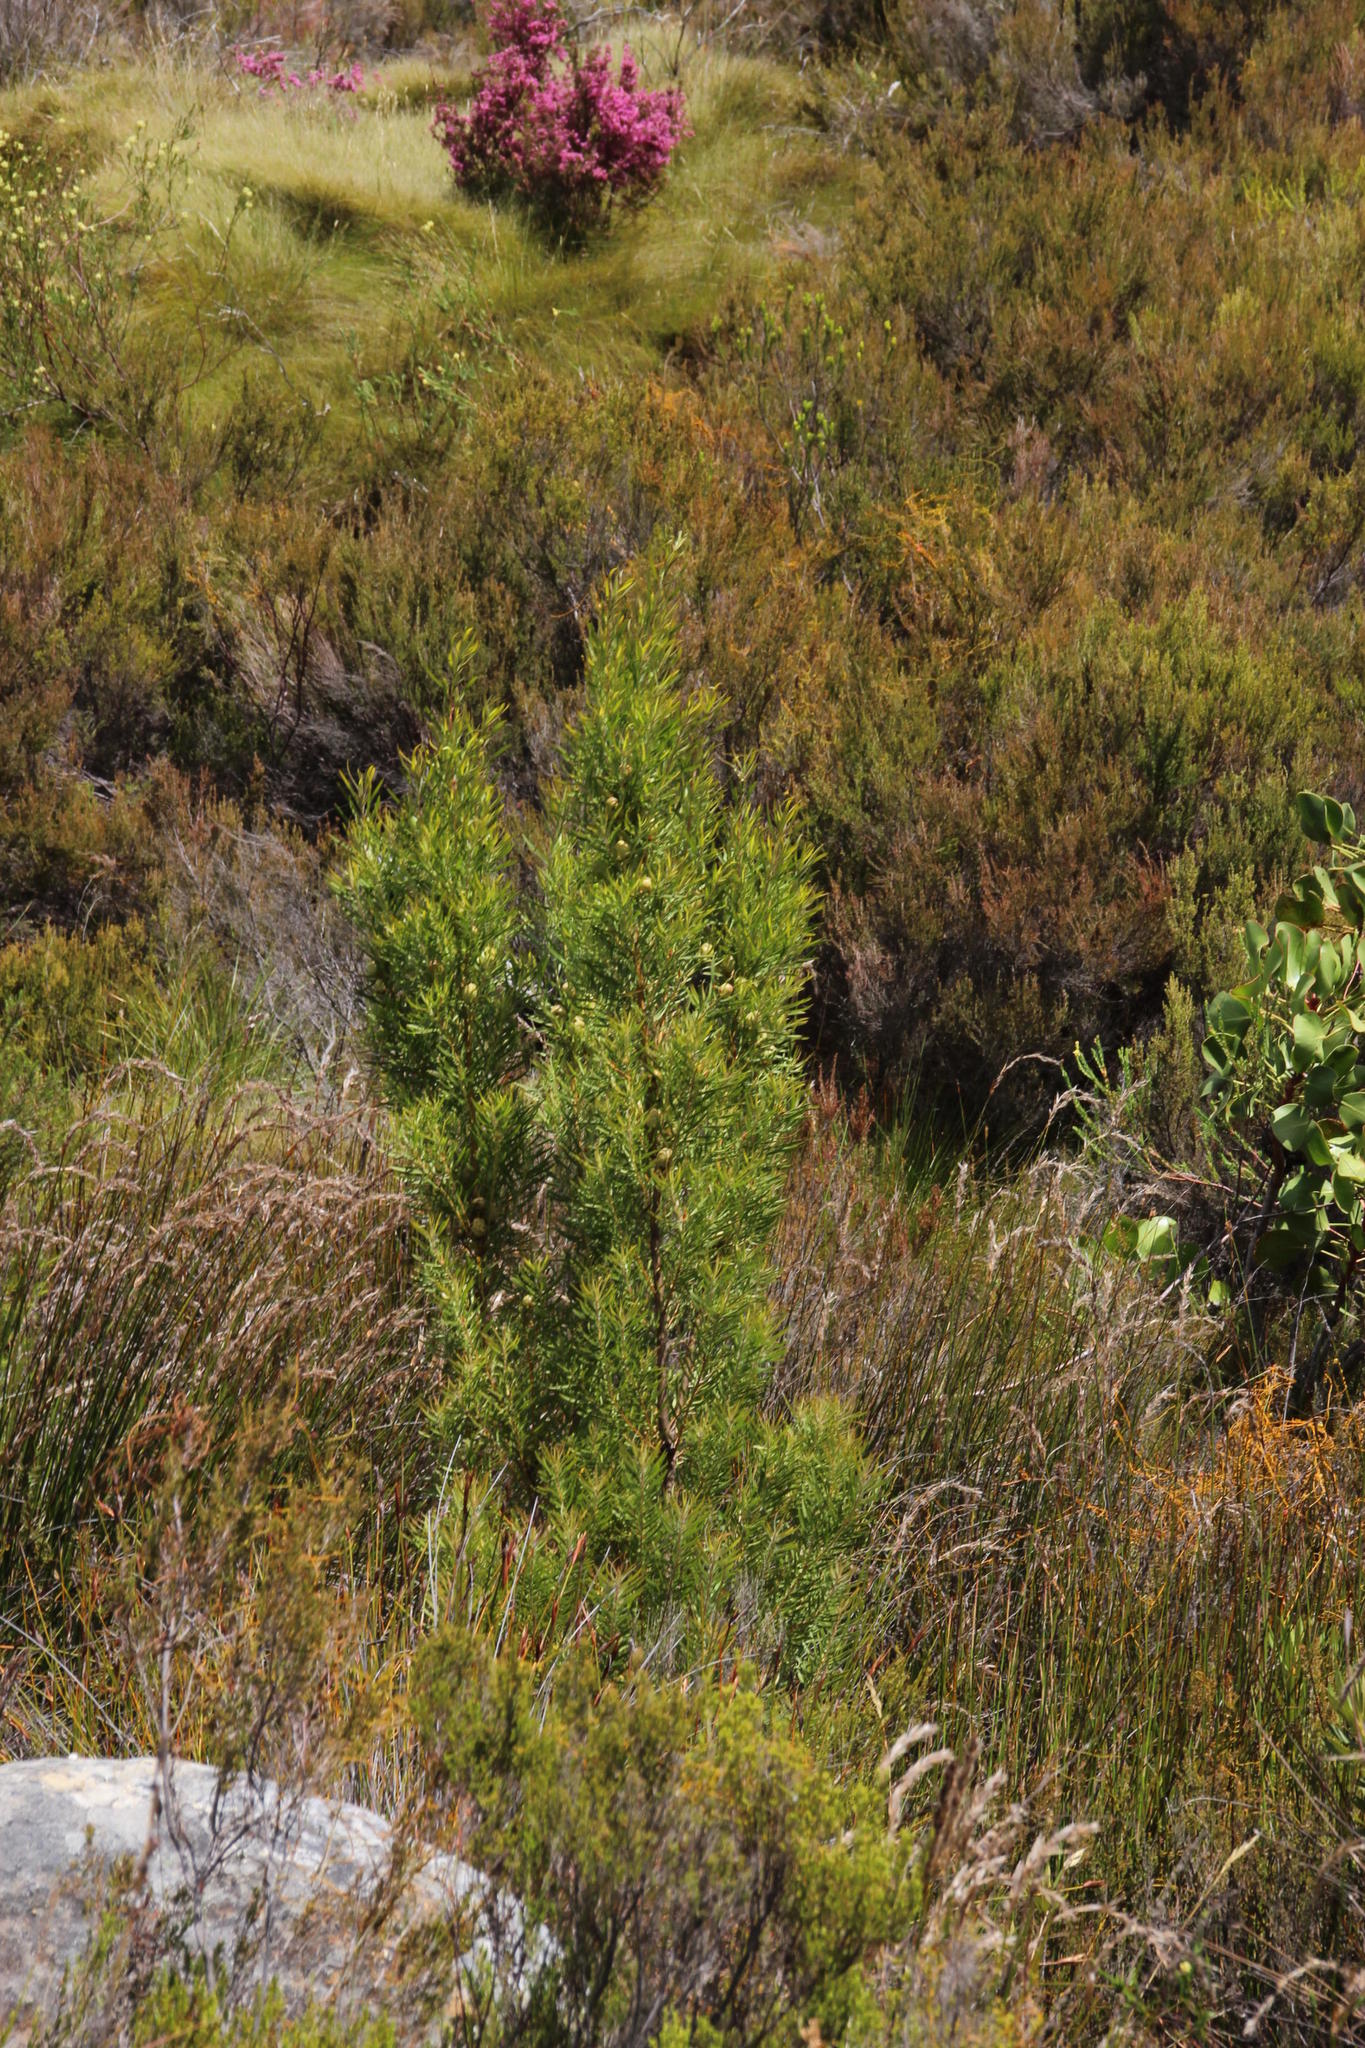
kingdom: Plantae
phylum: Tracheophyta
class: Magnoliopsida
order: Proteales
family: Proteaceae
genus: Leucadendron
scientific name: Leucadendron salicifolium
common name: Common stream conebush
